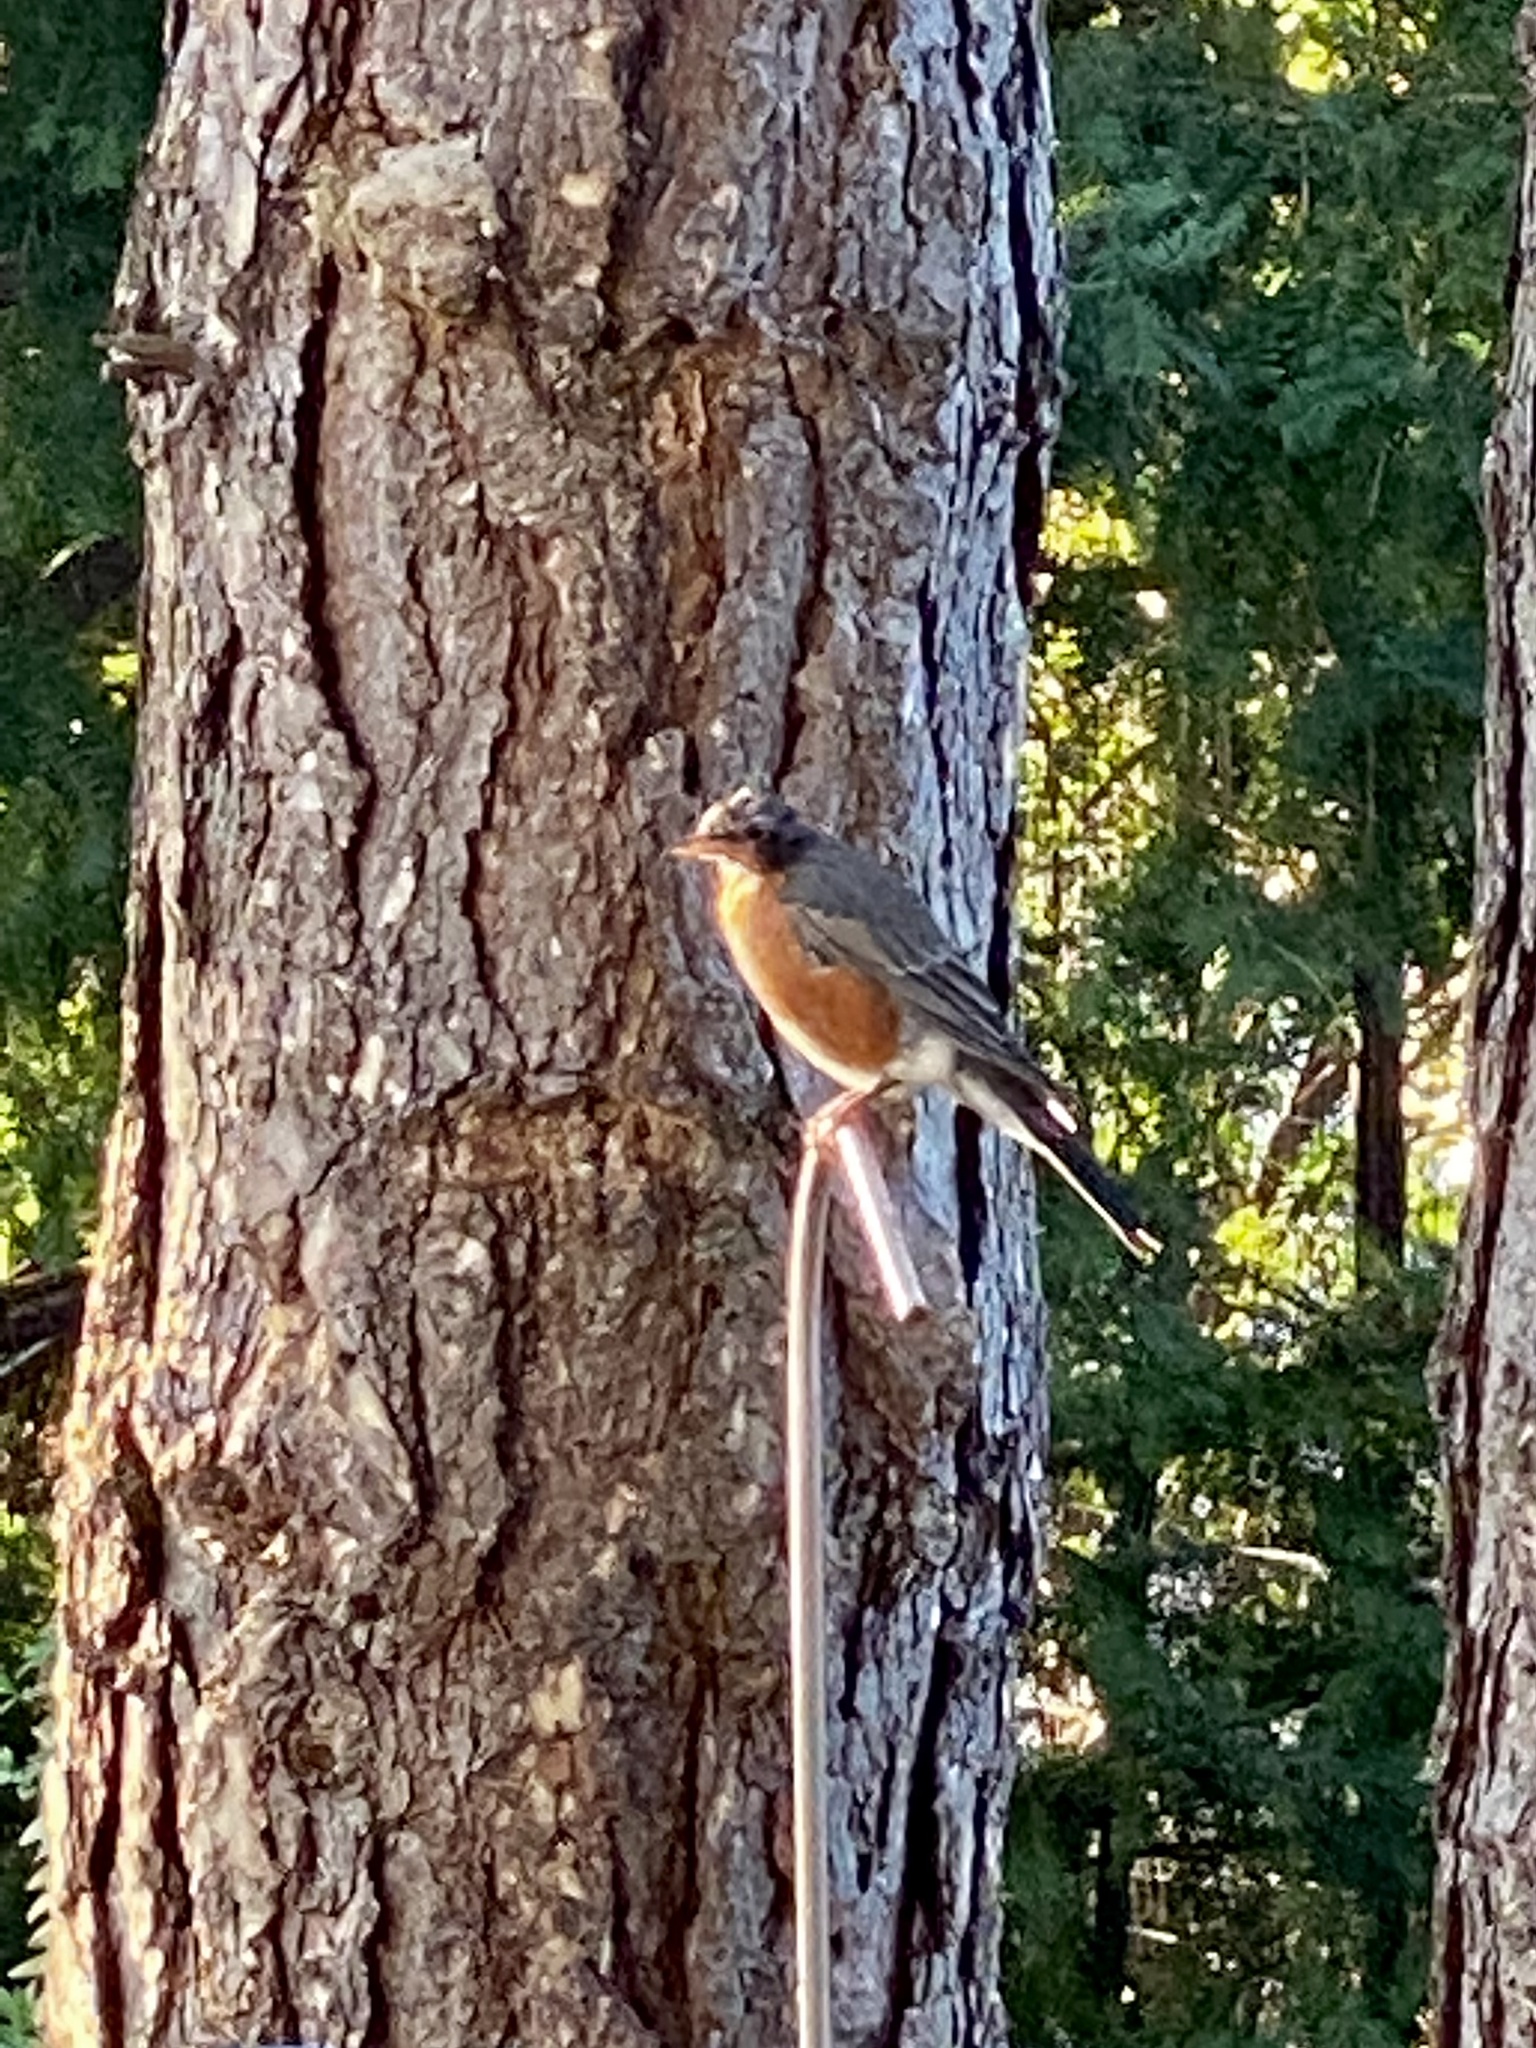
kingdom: Animalia
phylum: Chordata
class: Aves
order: Passeriformes
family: Turdidae
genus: Turdus
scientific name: Turdus migratorius
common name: American robin
